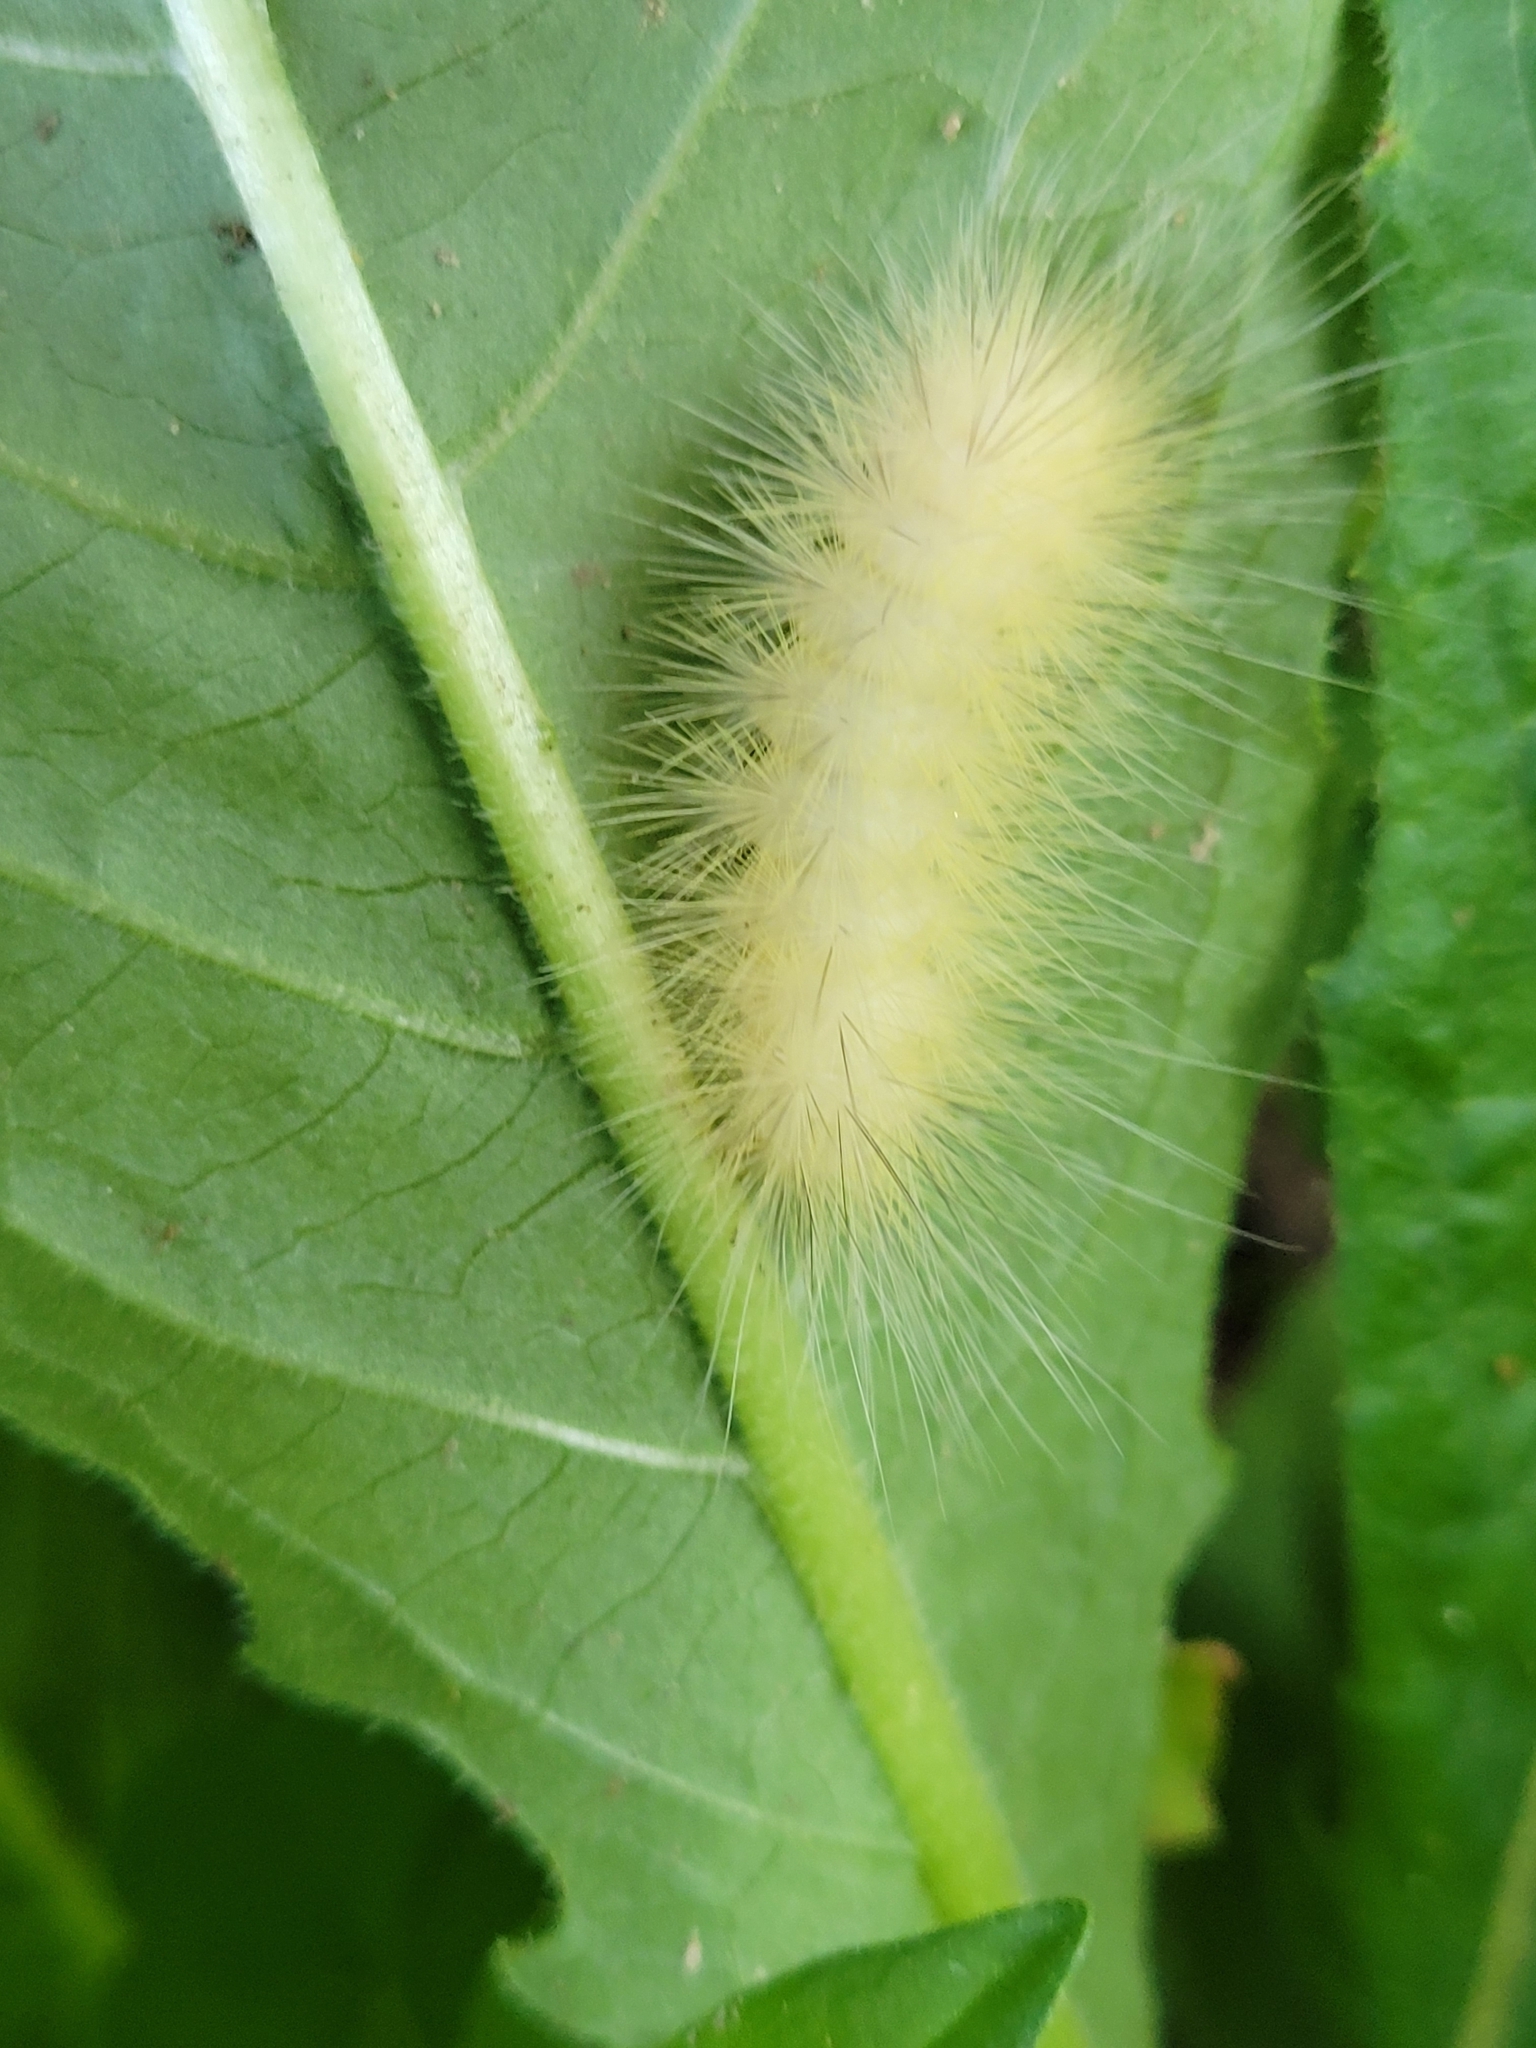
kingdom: Animalia
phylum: Arthropoda
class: Insecta
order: Lepidoptera
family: Erebidae
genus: Spilosoma
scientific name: Spilosoma virginica
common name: Virginia tiger moth
